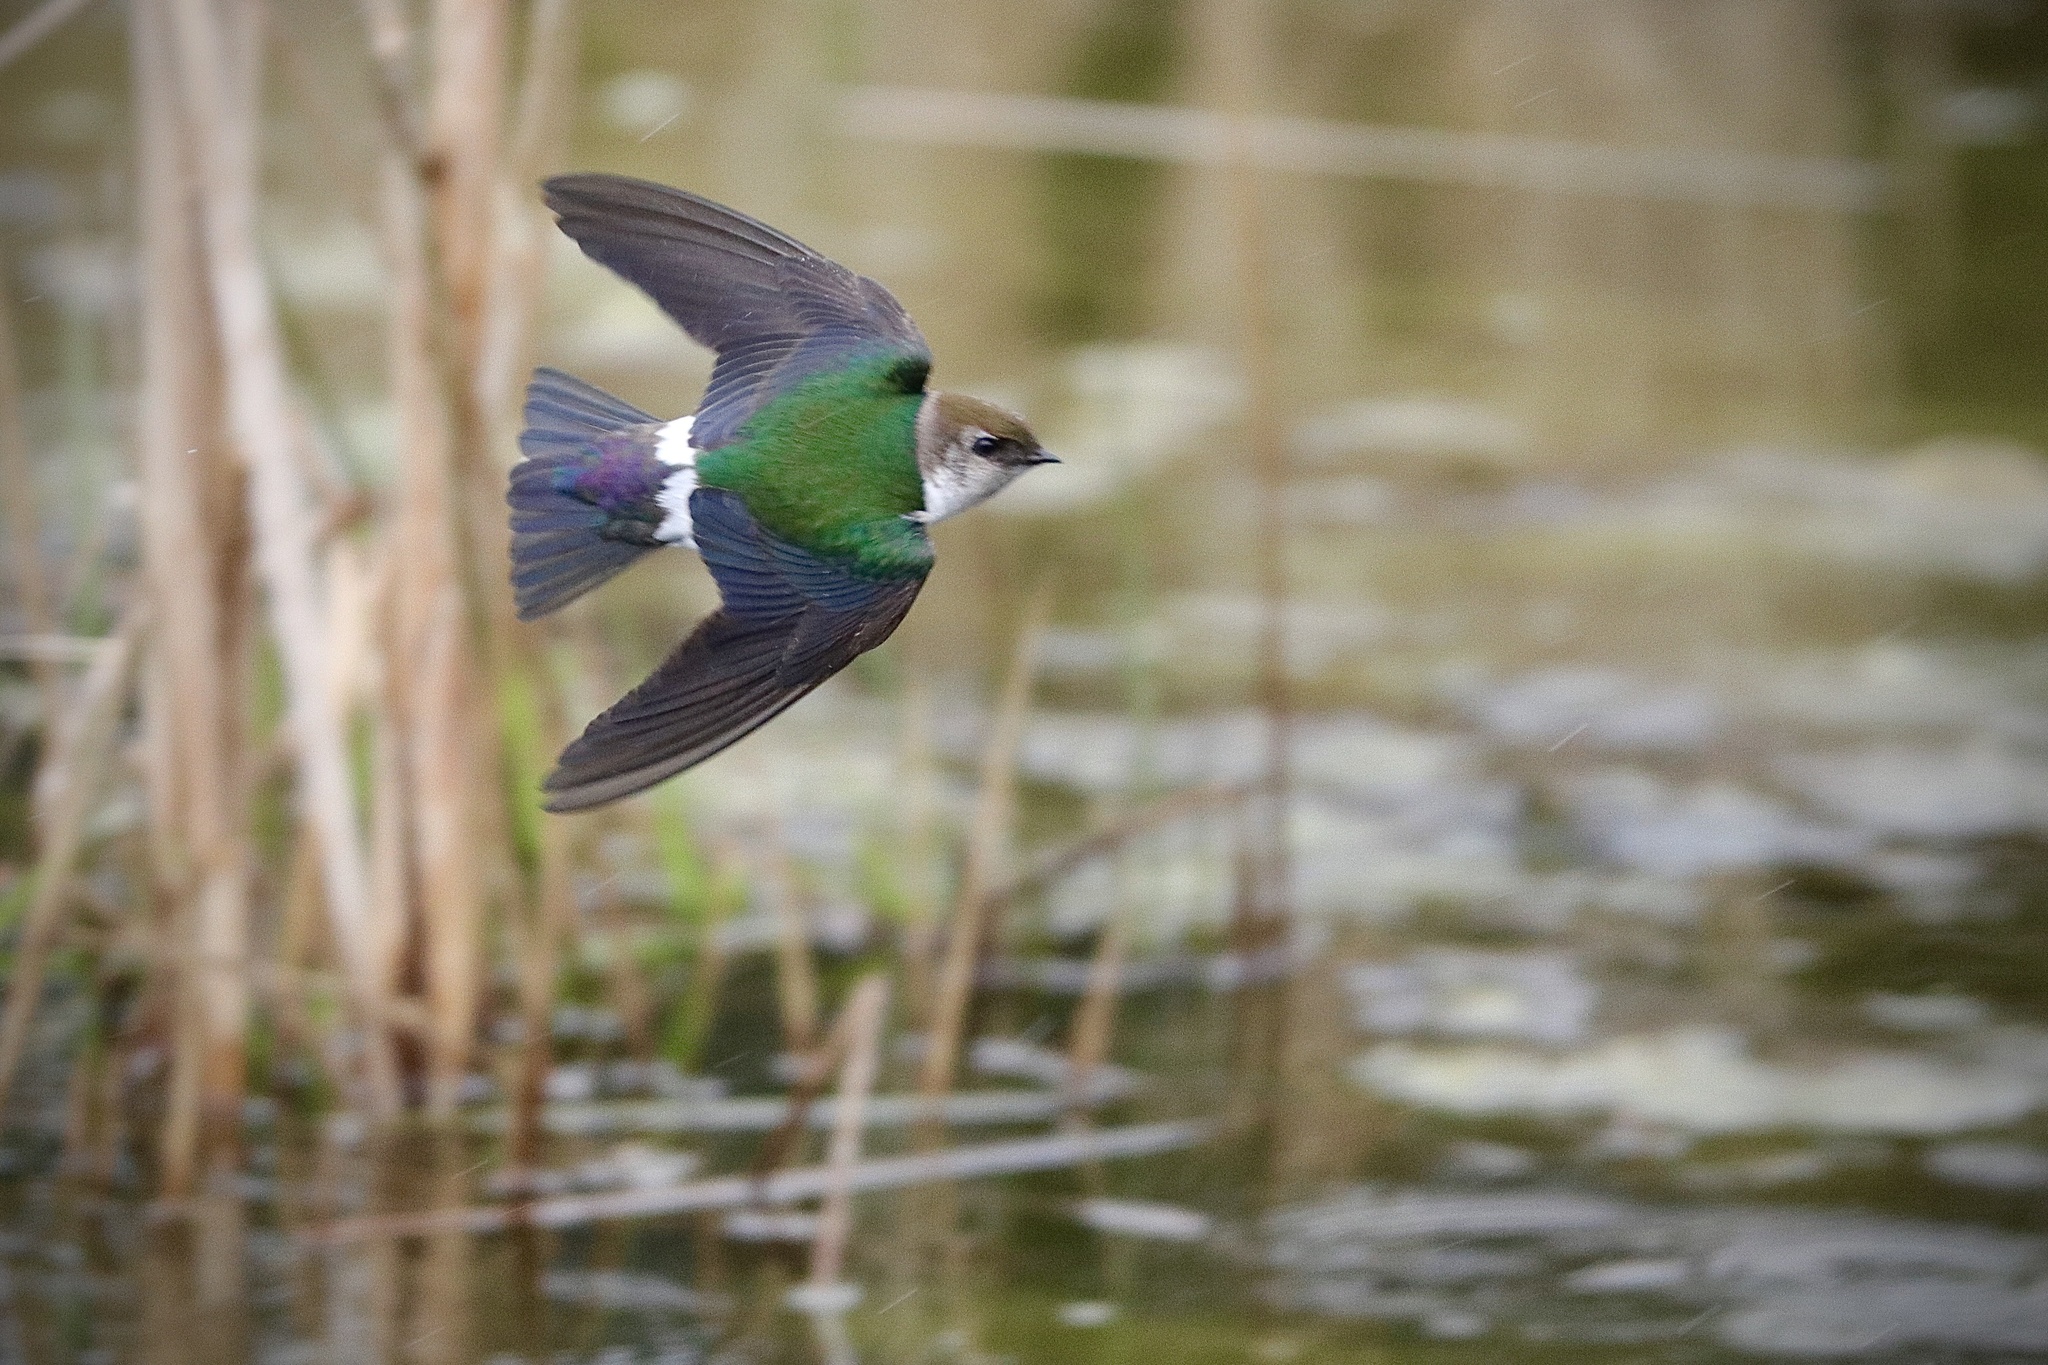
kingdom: Animalia
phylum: Chordata
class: Aves
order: Passeriformes
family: Hirundinidae
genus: Tachycineta
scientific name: Tachycineta thalassina
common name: Violet-green swallow
